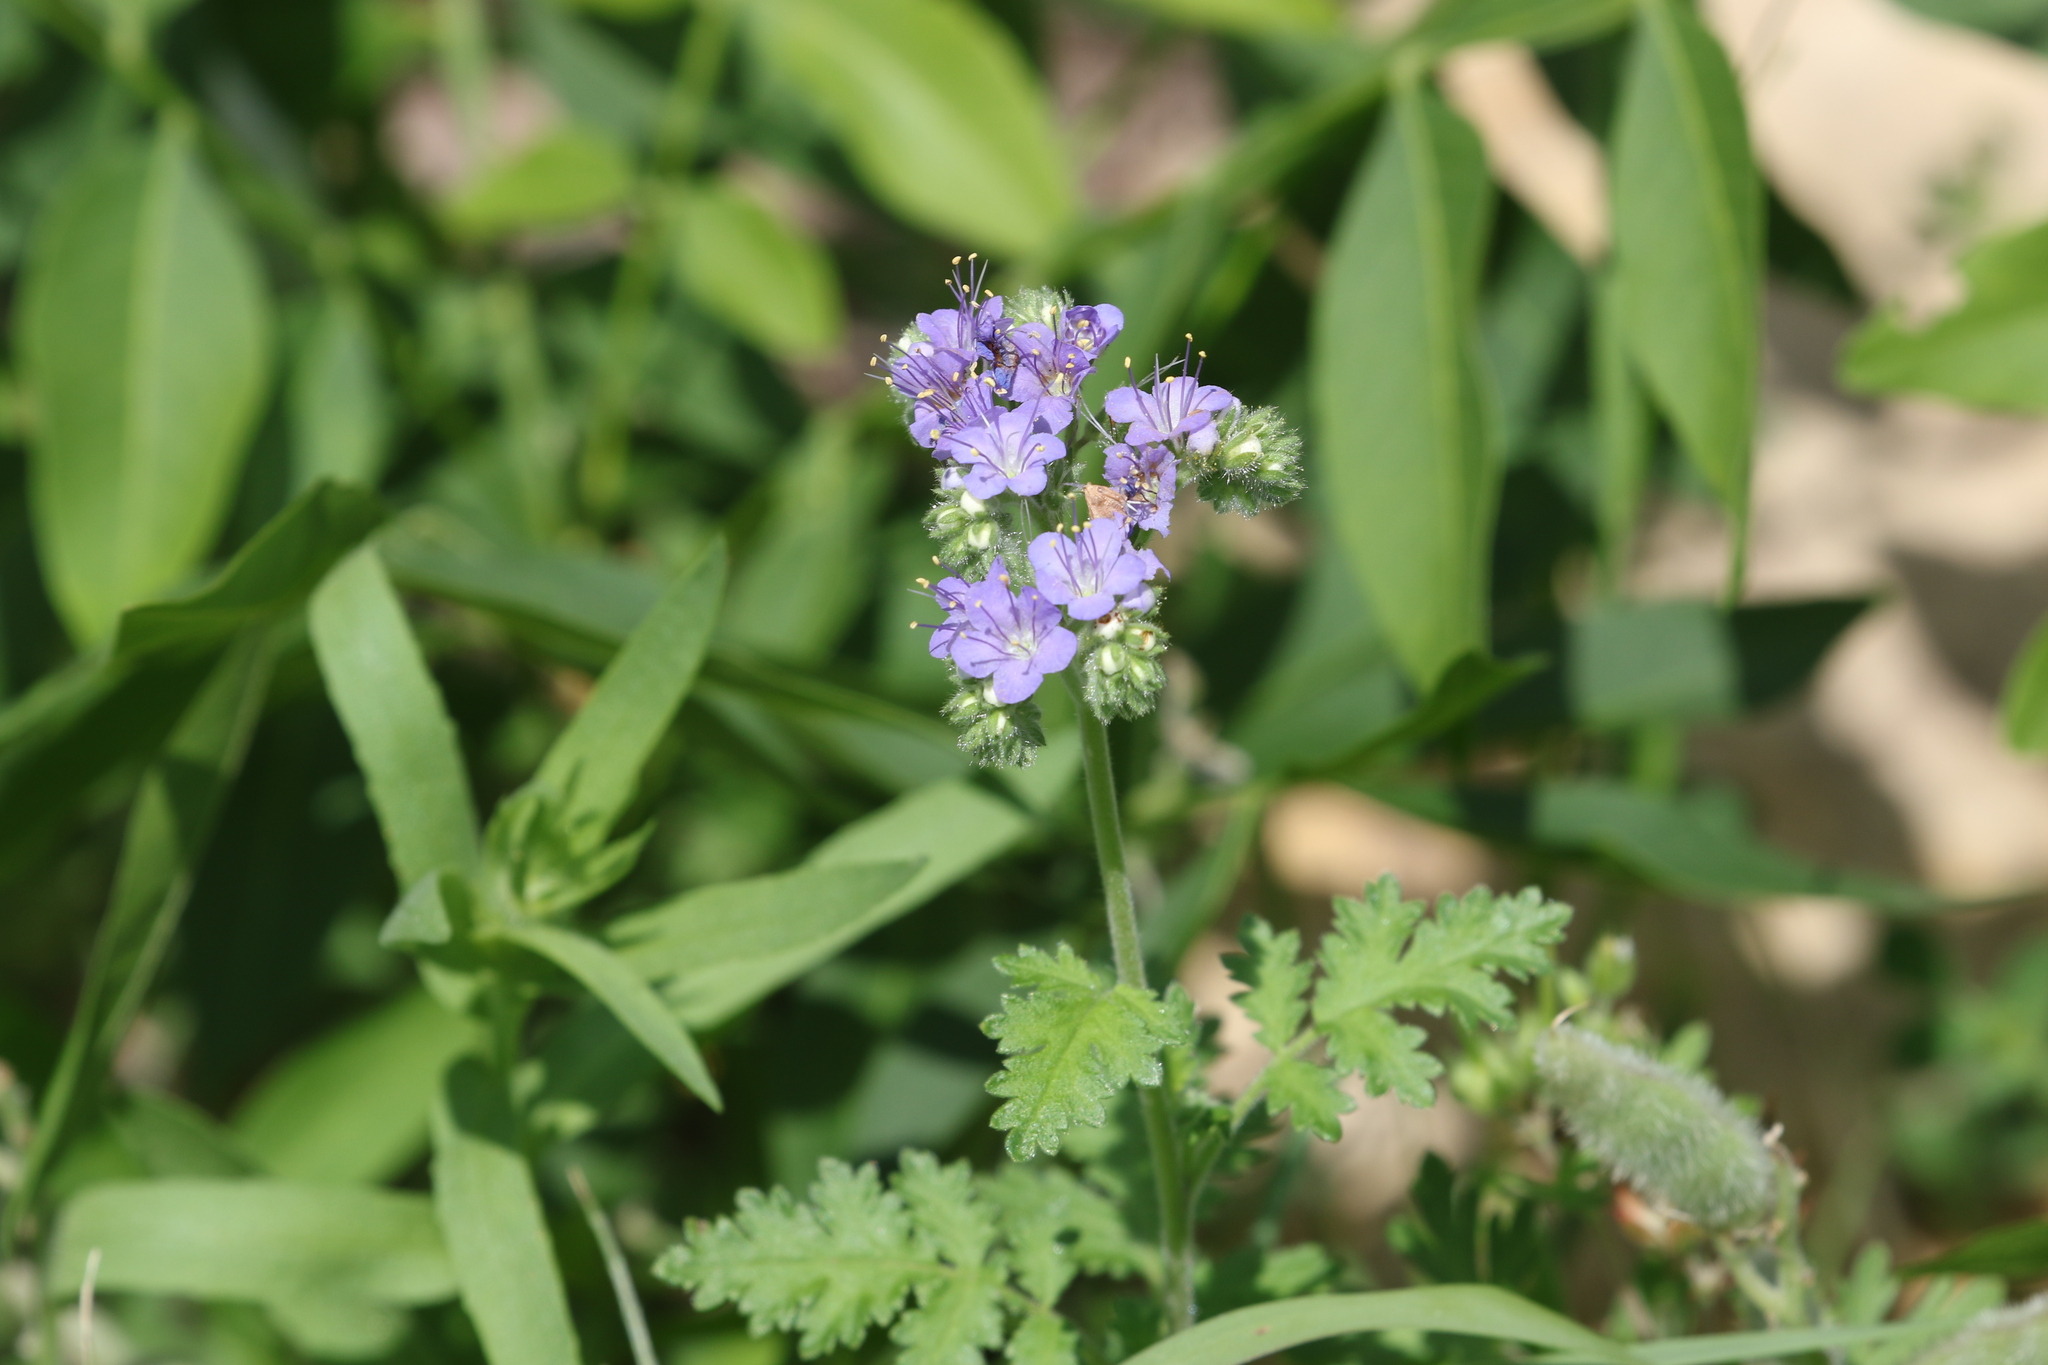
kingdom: Plantae
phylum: Tracheophyta
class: Magnoliopsida
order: Boraginales
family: Hydrophyllaceae
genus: Phacelia
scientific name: Phacelia congesta
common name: Blue curls
